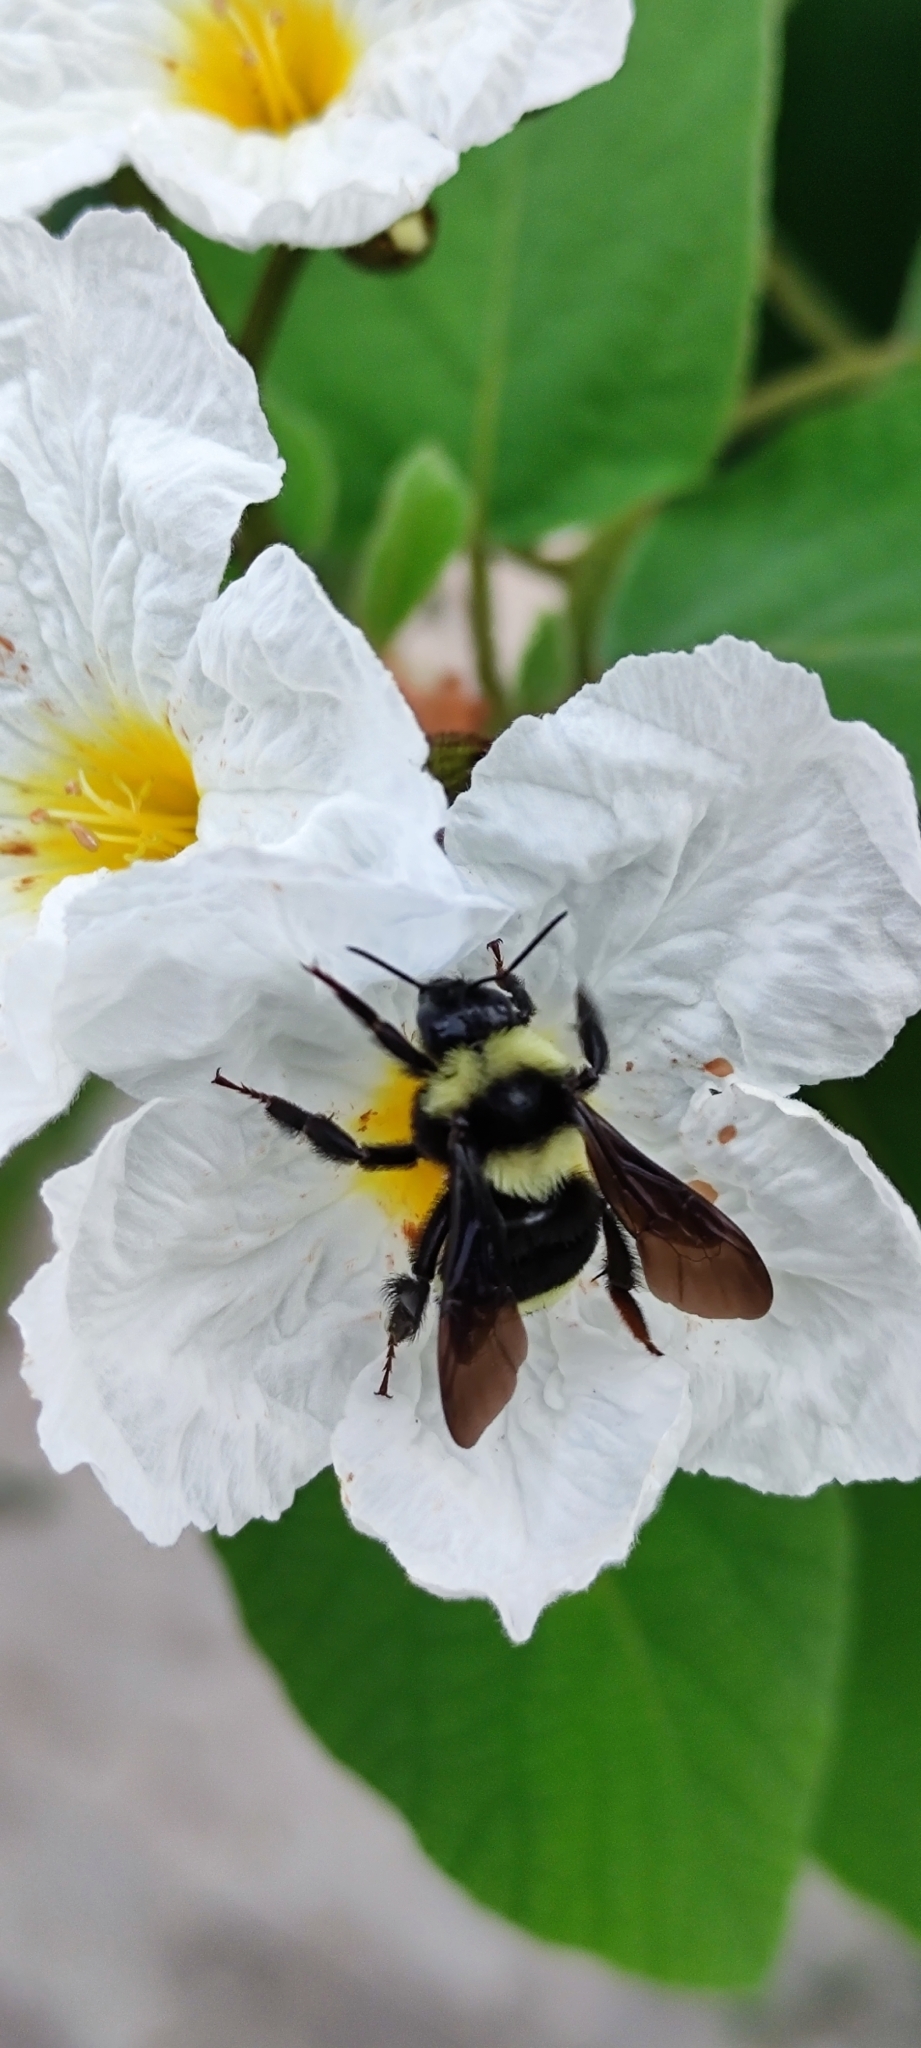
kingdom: Animalia
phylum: Arthropoda
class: Insecta
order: Hymenoptera
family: Apidae
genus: Bombus
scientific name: Bombus medius
